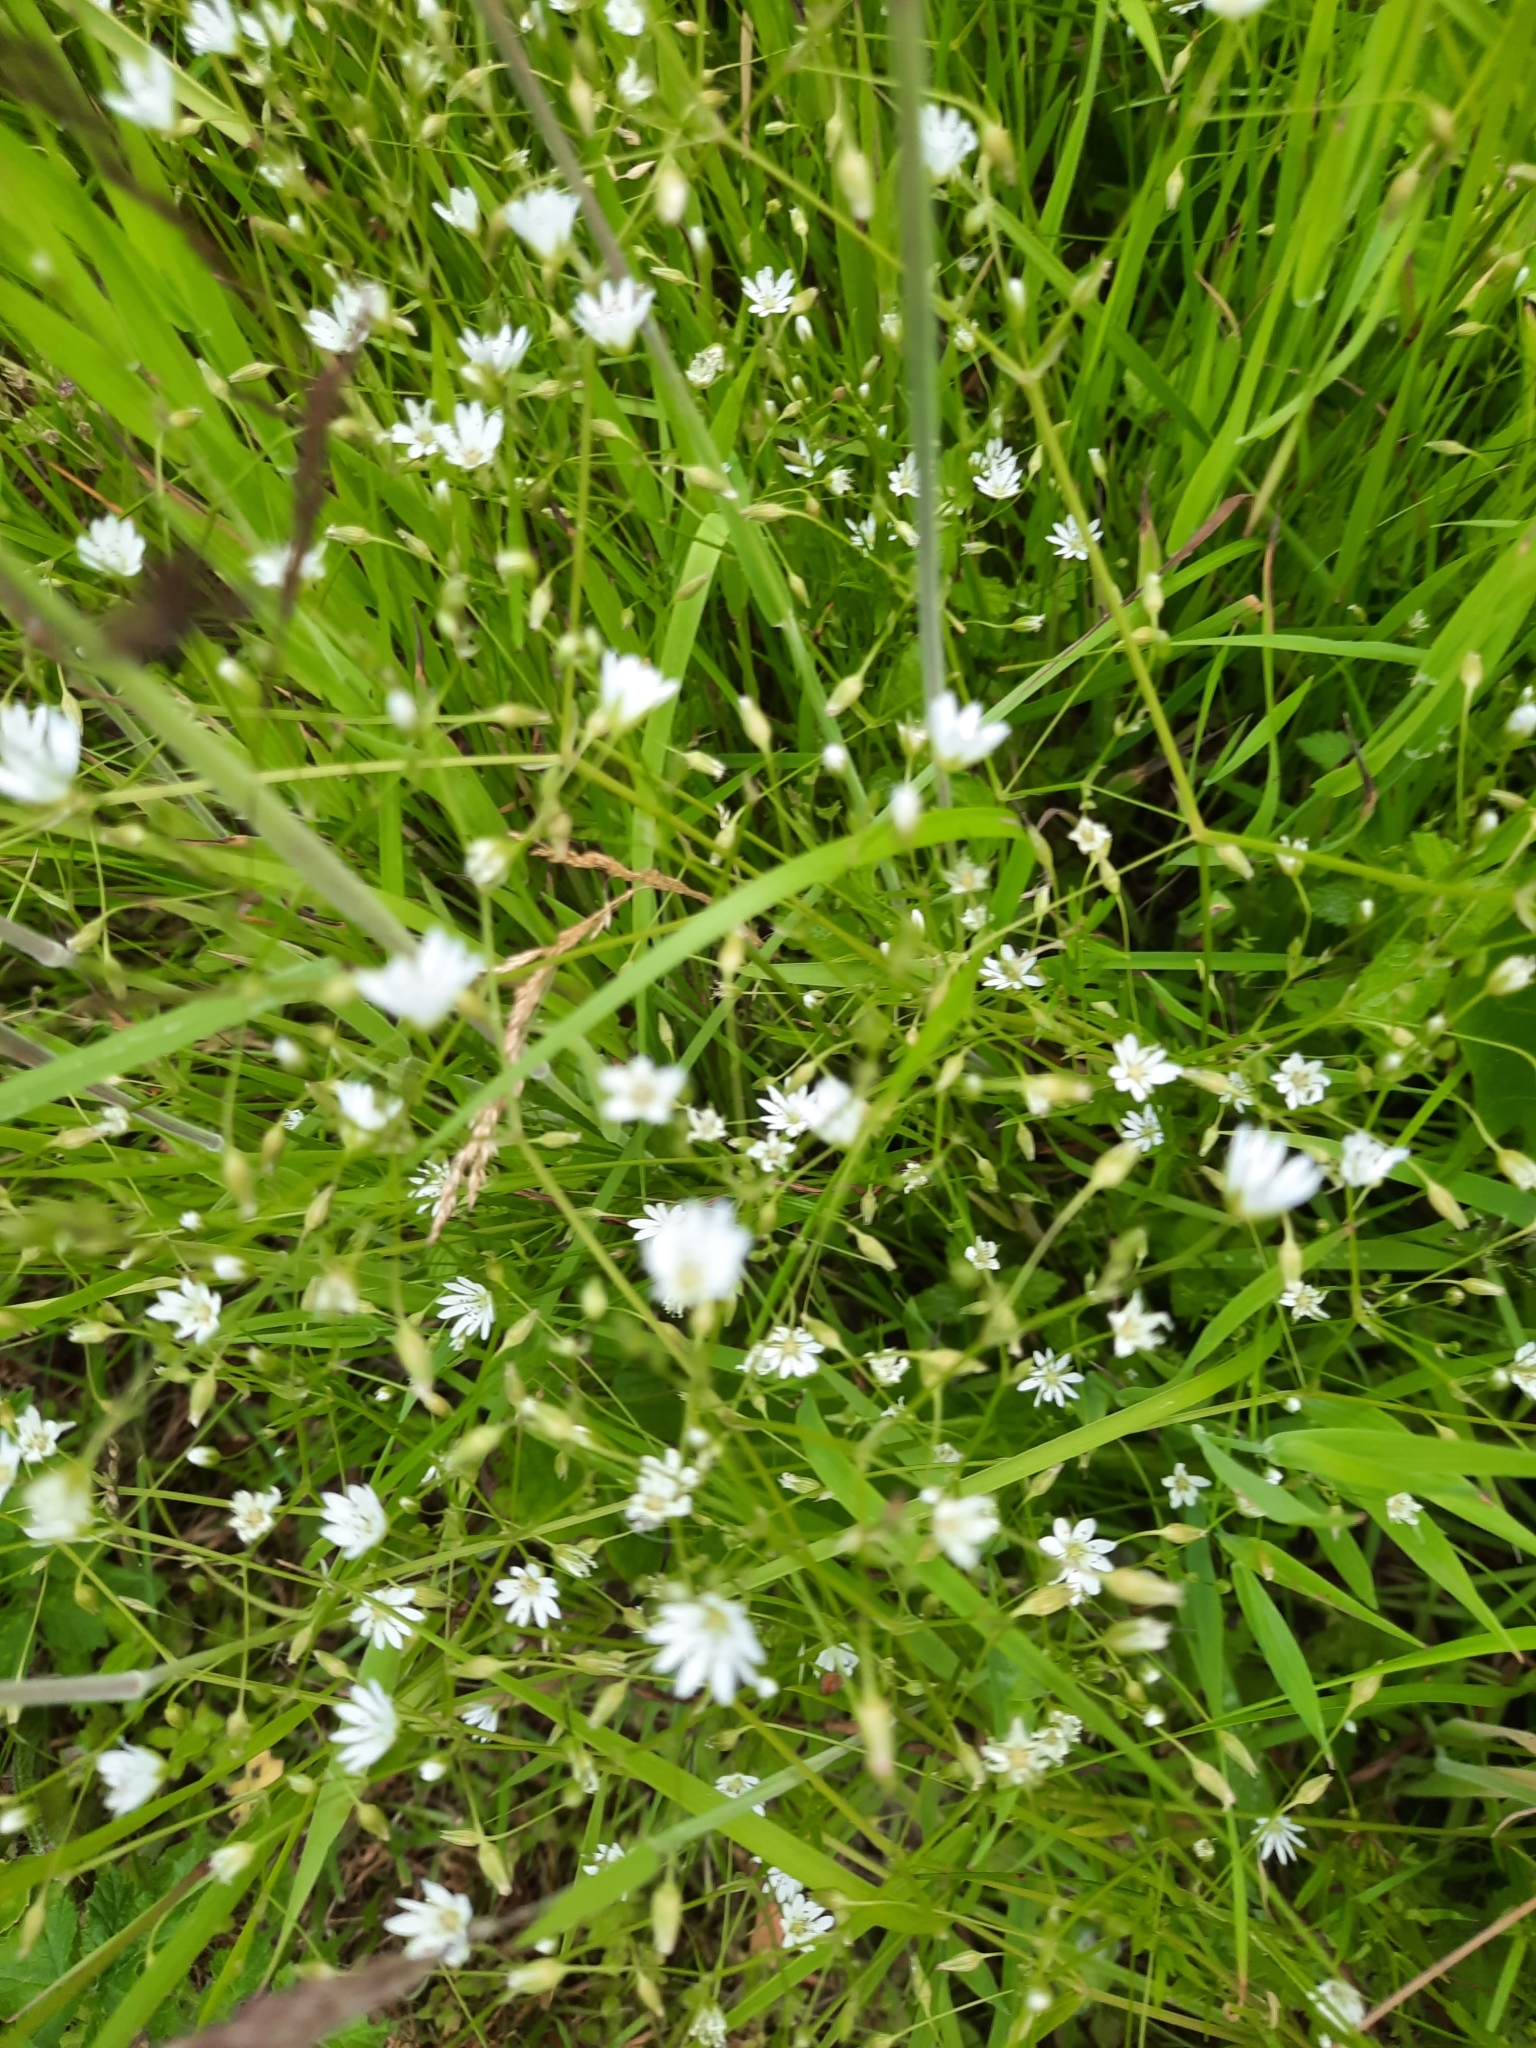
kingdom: Plantae
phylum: Tracheophyta
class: Magnoliopsida
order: Caryophyllales
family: Caryophyllaceae
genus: Stellaria
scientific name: Stellaria graminea
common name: Grass-like starwort
